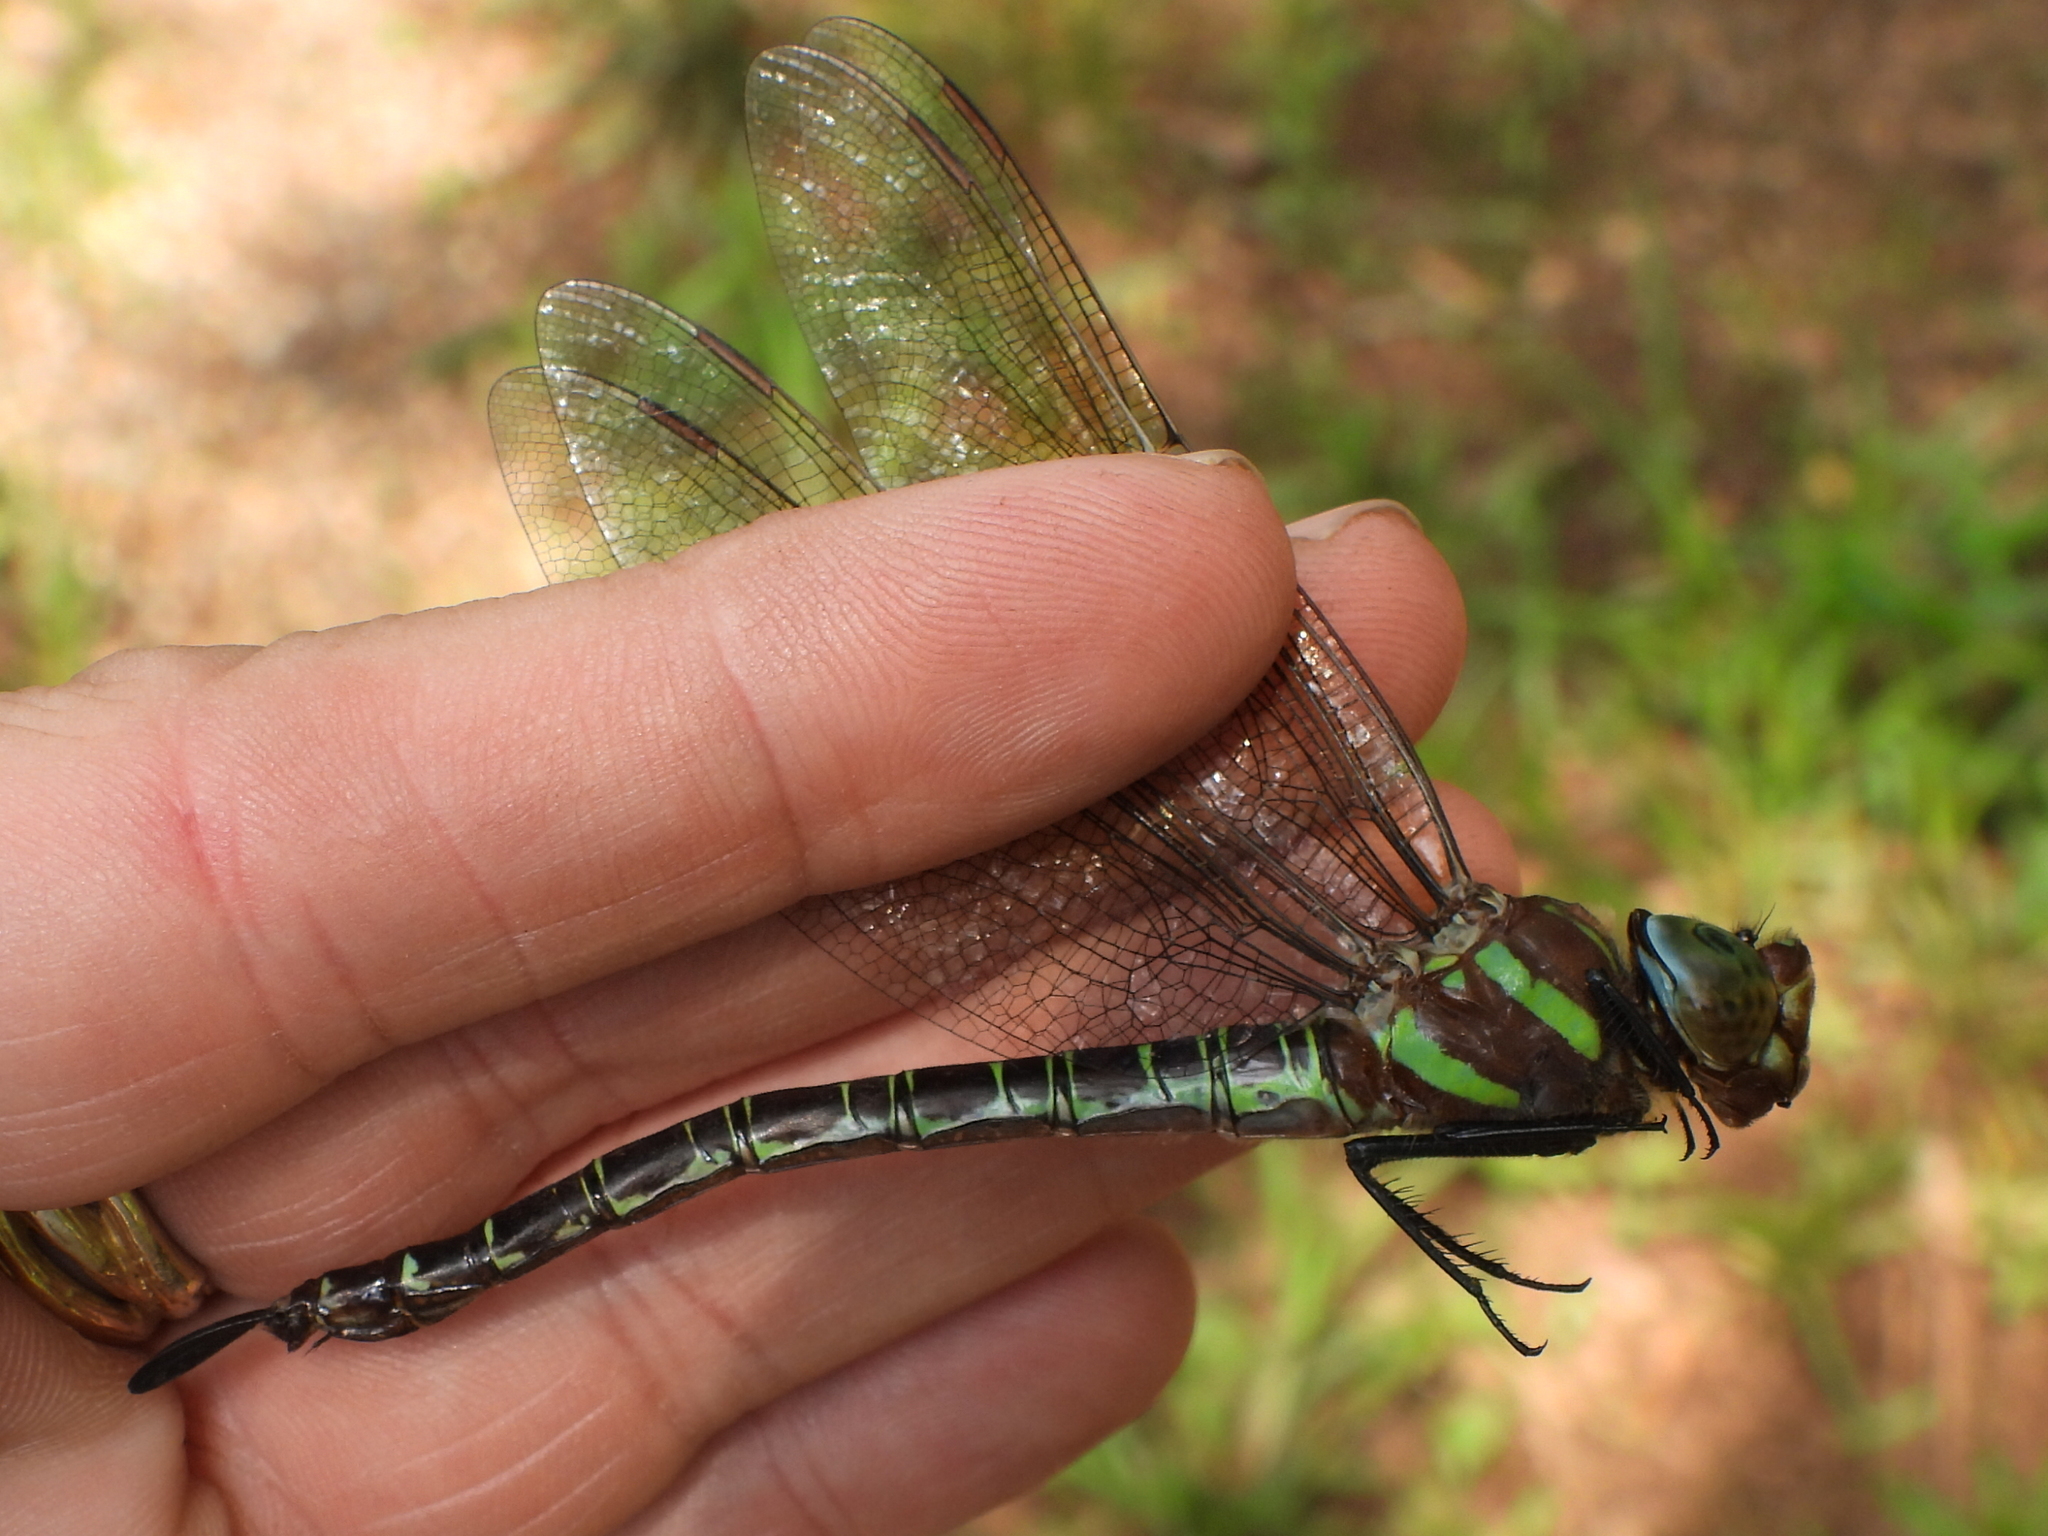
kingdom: Animalia
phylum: Arthropoda
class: Insecta
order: Odonata
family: Aeshnidae
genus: Epiaeschna
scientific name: Epiaeschna heros
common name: Swamp darner
